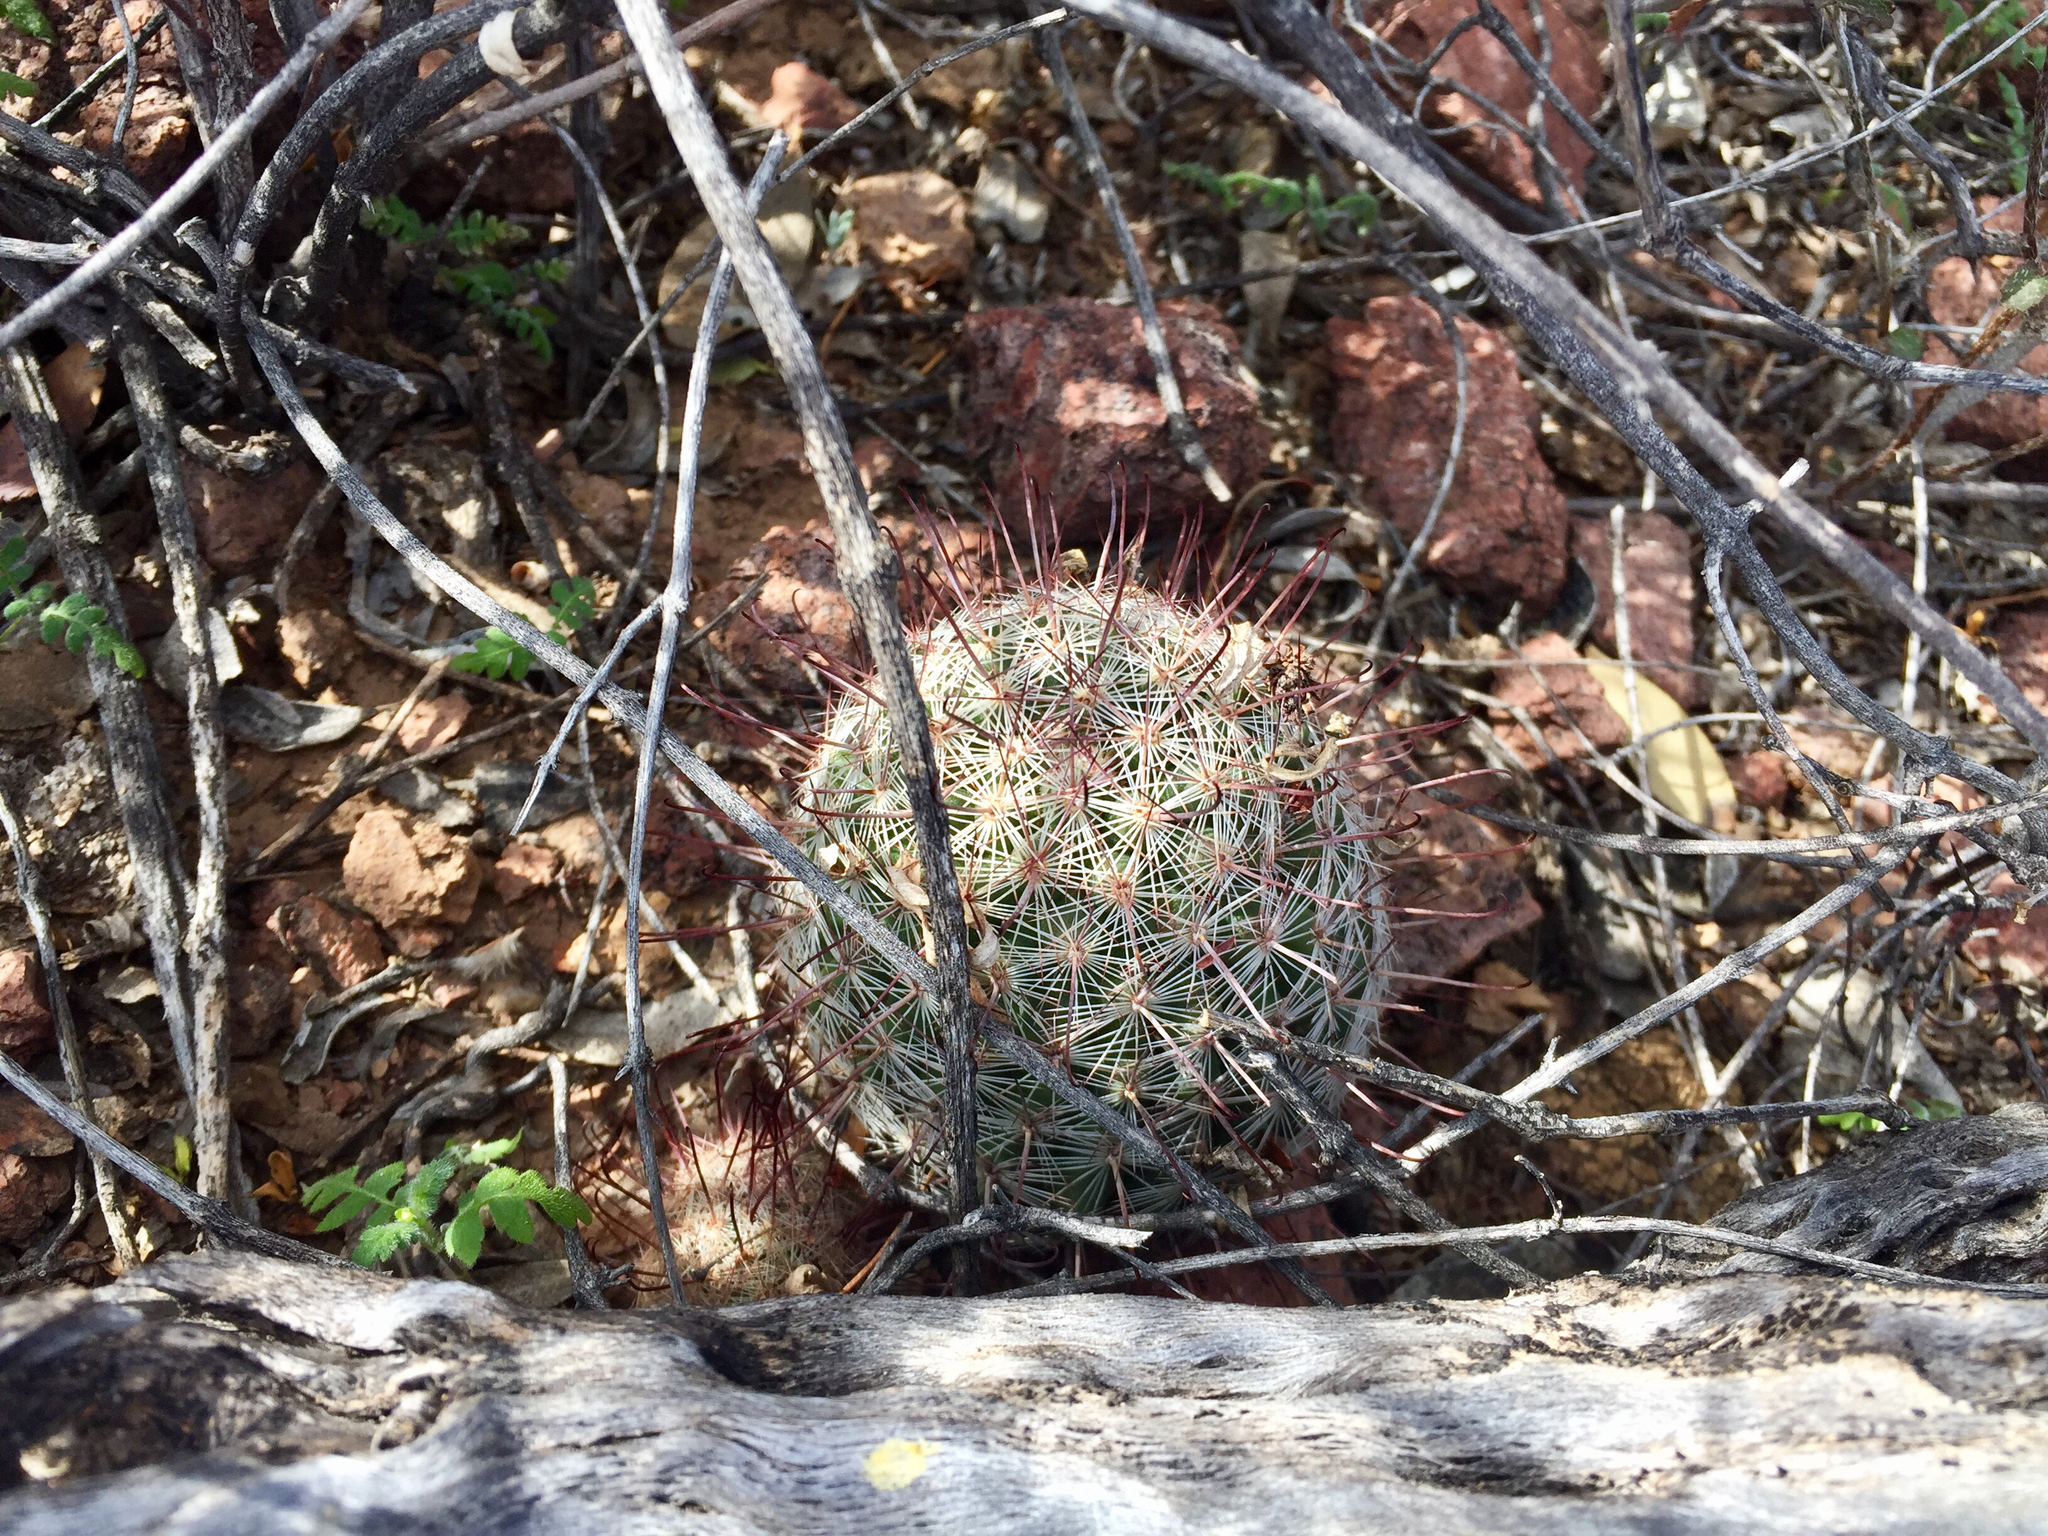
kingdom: Plantae
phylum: Tracheophyta
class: Magnoliopsida
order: Caryophyllales
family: Cactaceae
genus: Cochemiea
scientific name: Cochemiea grahamii
